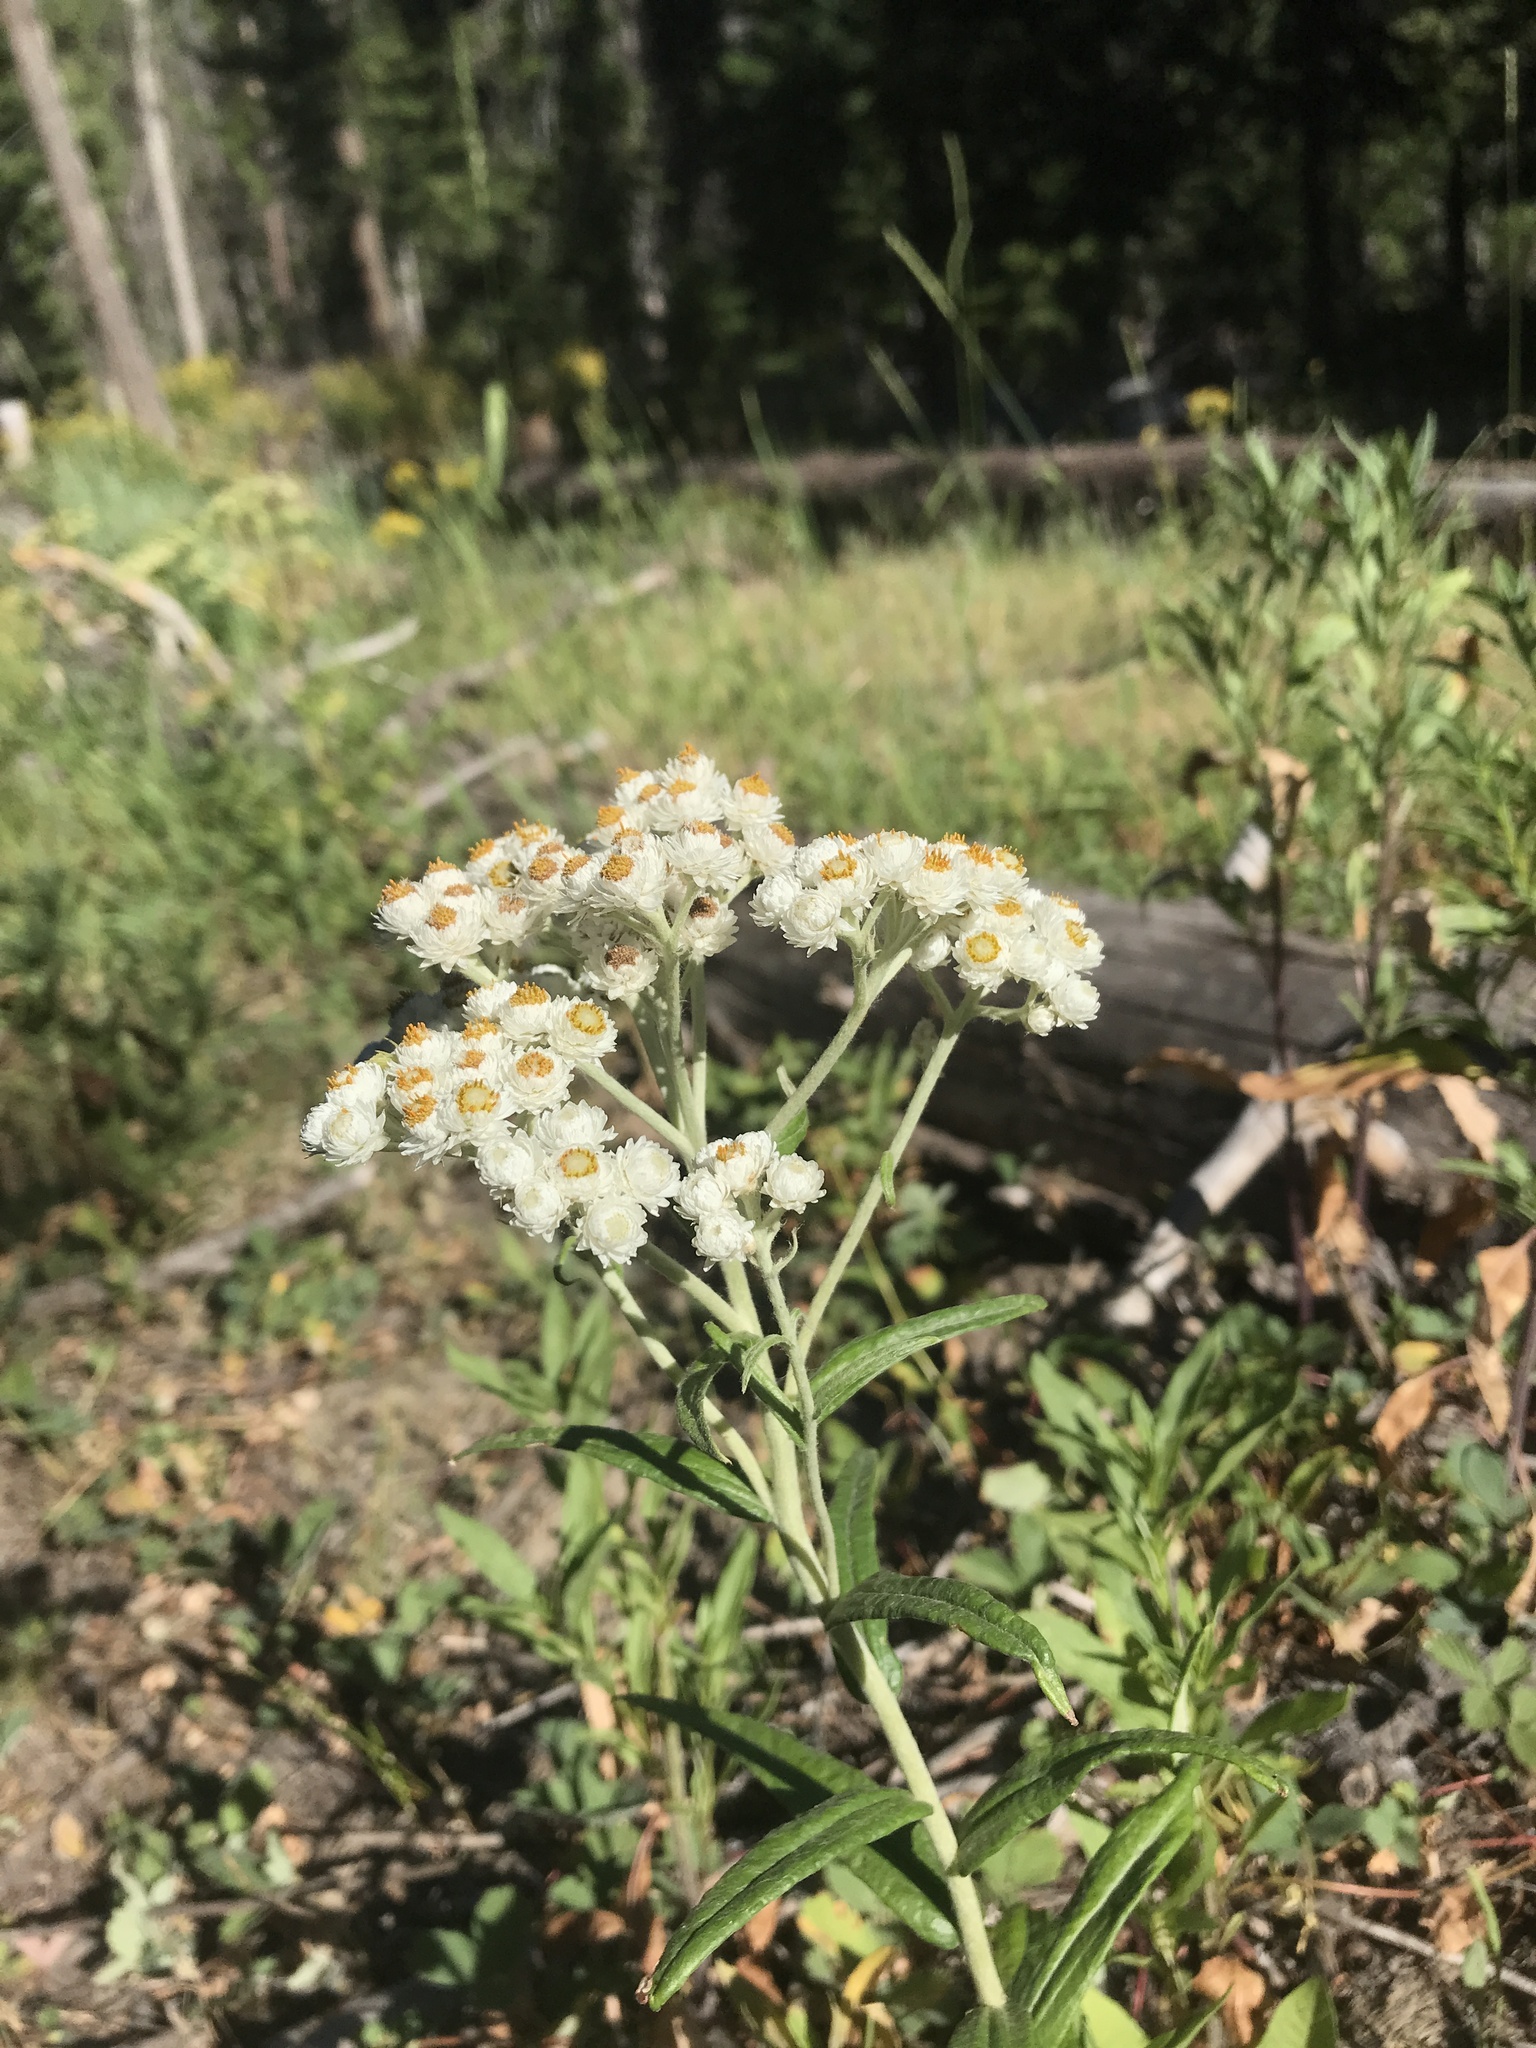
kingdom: Plantae
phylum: Tracheophyta
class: Magnoliopsida
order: Asterales
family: Asteraceae
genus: Anaphalis
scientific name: Anaphalis margaritacea
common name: Pearly everlasting
